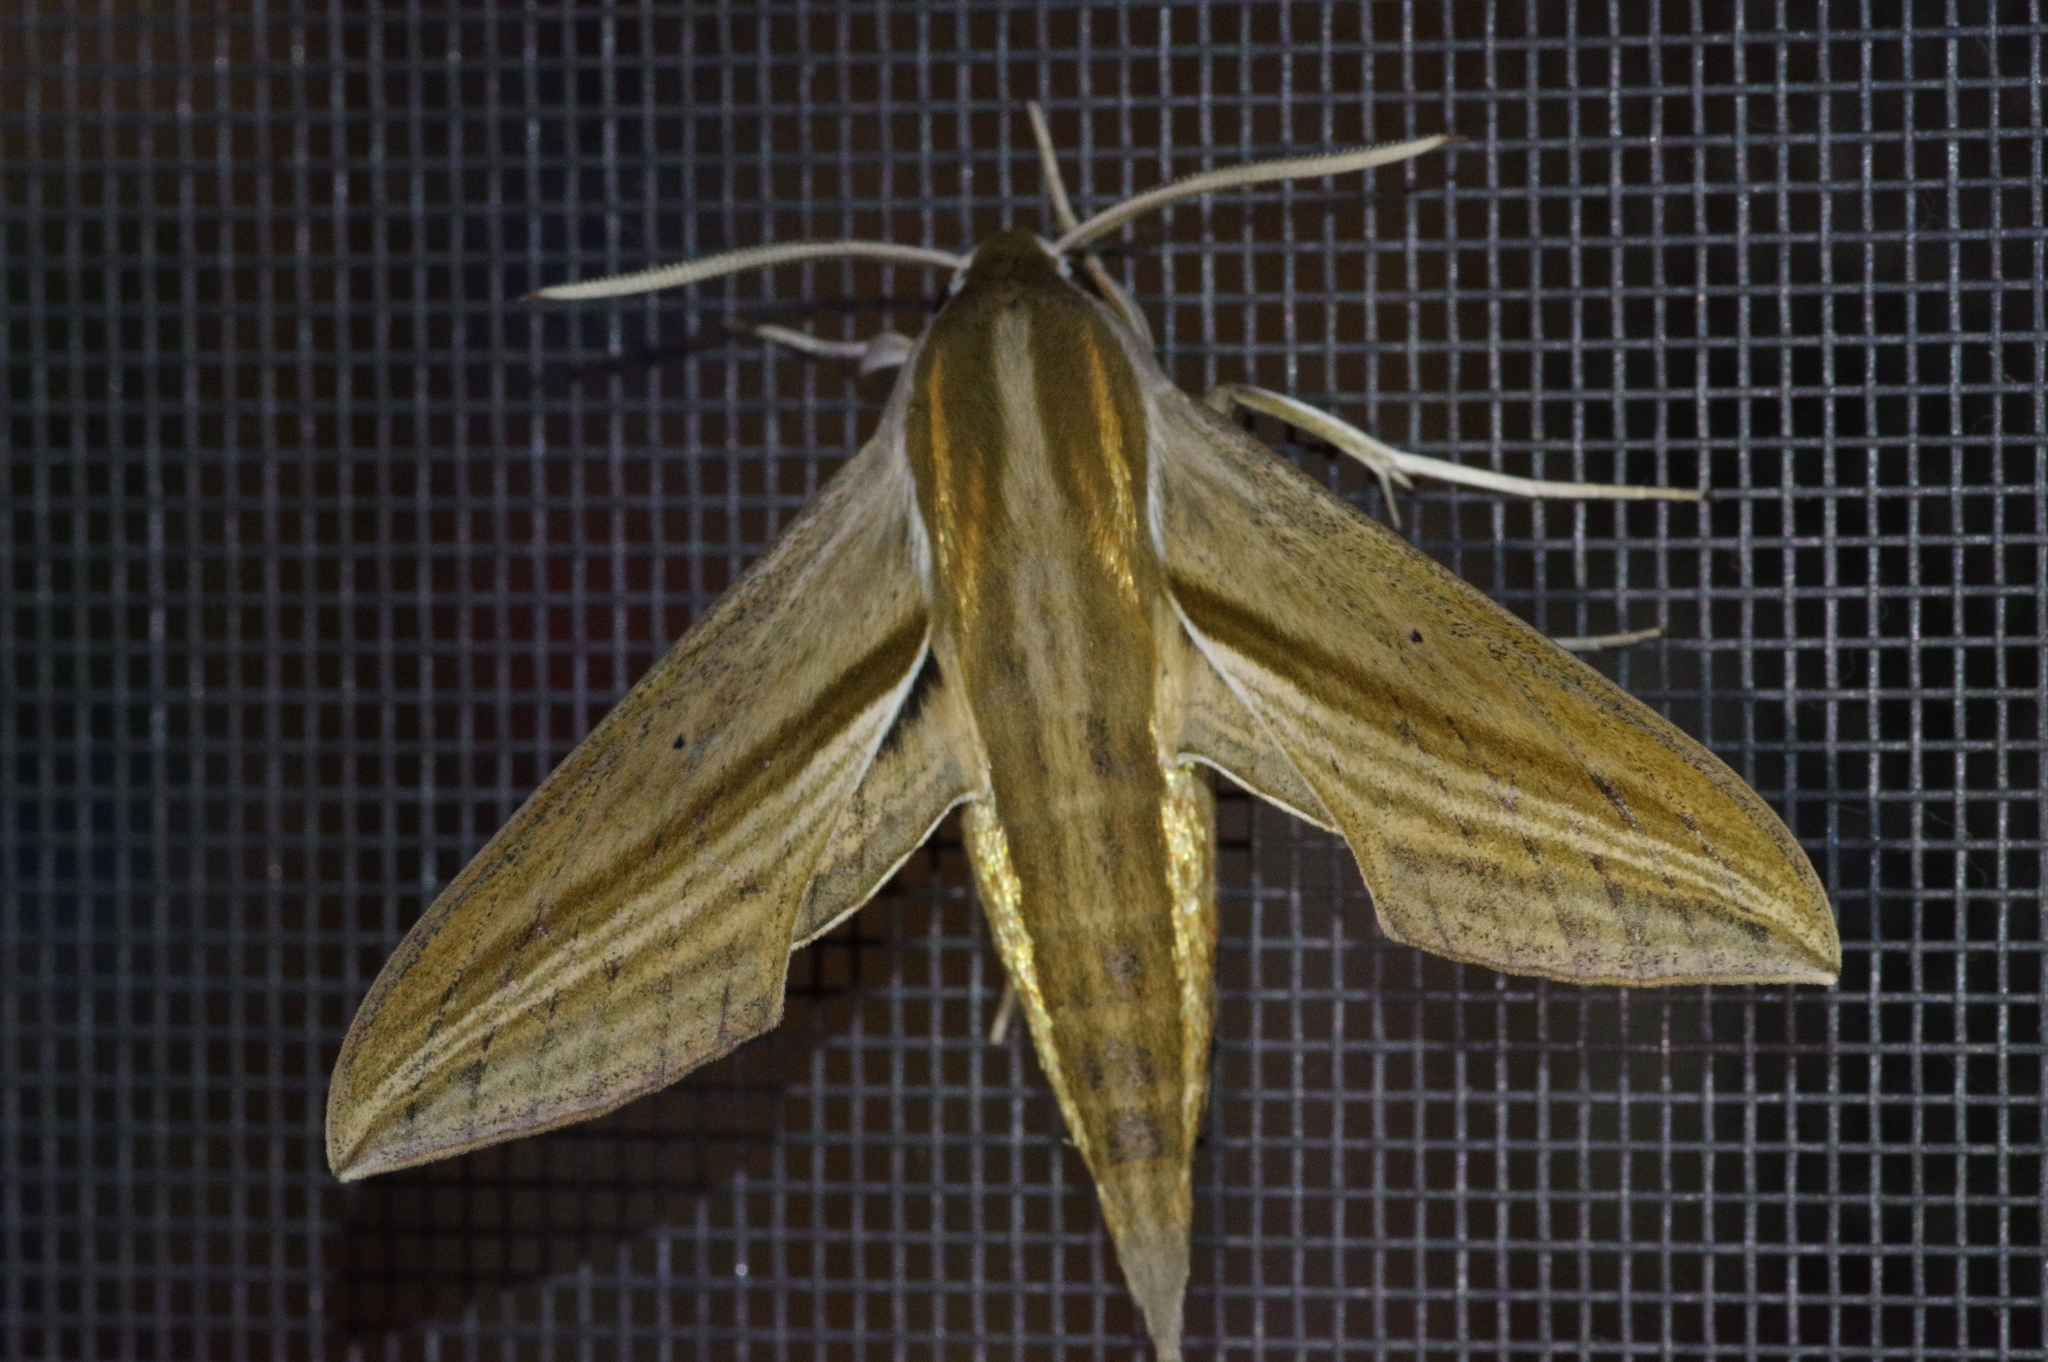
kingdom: Animalia
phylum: Arthropoda
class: Insecta
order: Lepidoptera
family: Sphingidae
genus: Theretra
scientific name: Theretra japonica
